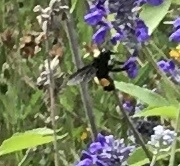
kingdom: Animalia
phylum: Arthropoda
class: Insecta
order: Hymenoptera
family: Apidae
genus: Bombus
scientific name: Bombus pensylvanicus
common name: Bumble bee
